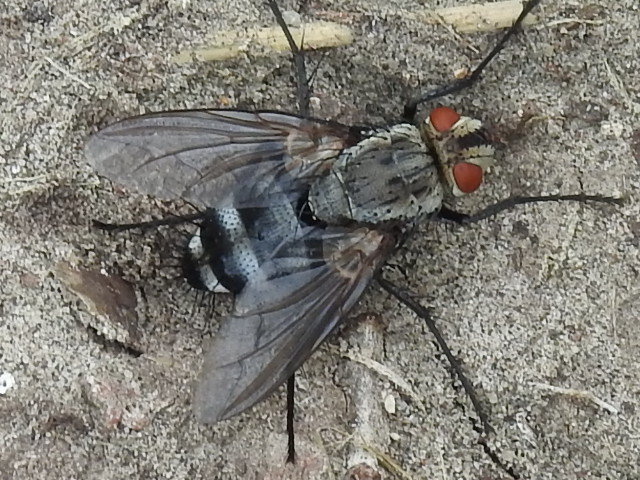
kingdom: Animalia
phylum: Arthropoda
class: Insecta
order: Diptera
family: Tachinidae
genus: Microphthalma
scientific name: Microphthalma disjuncta
